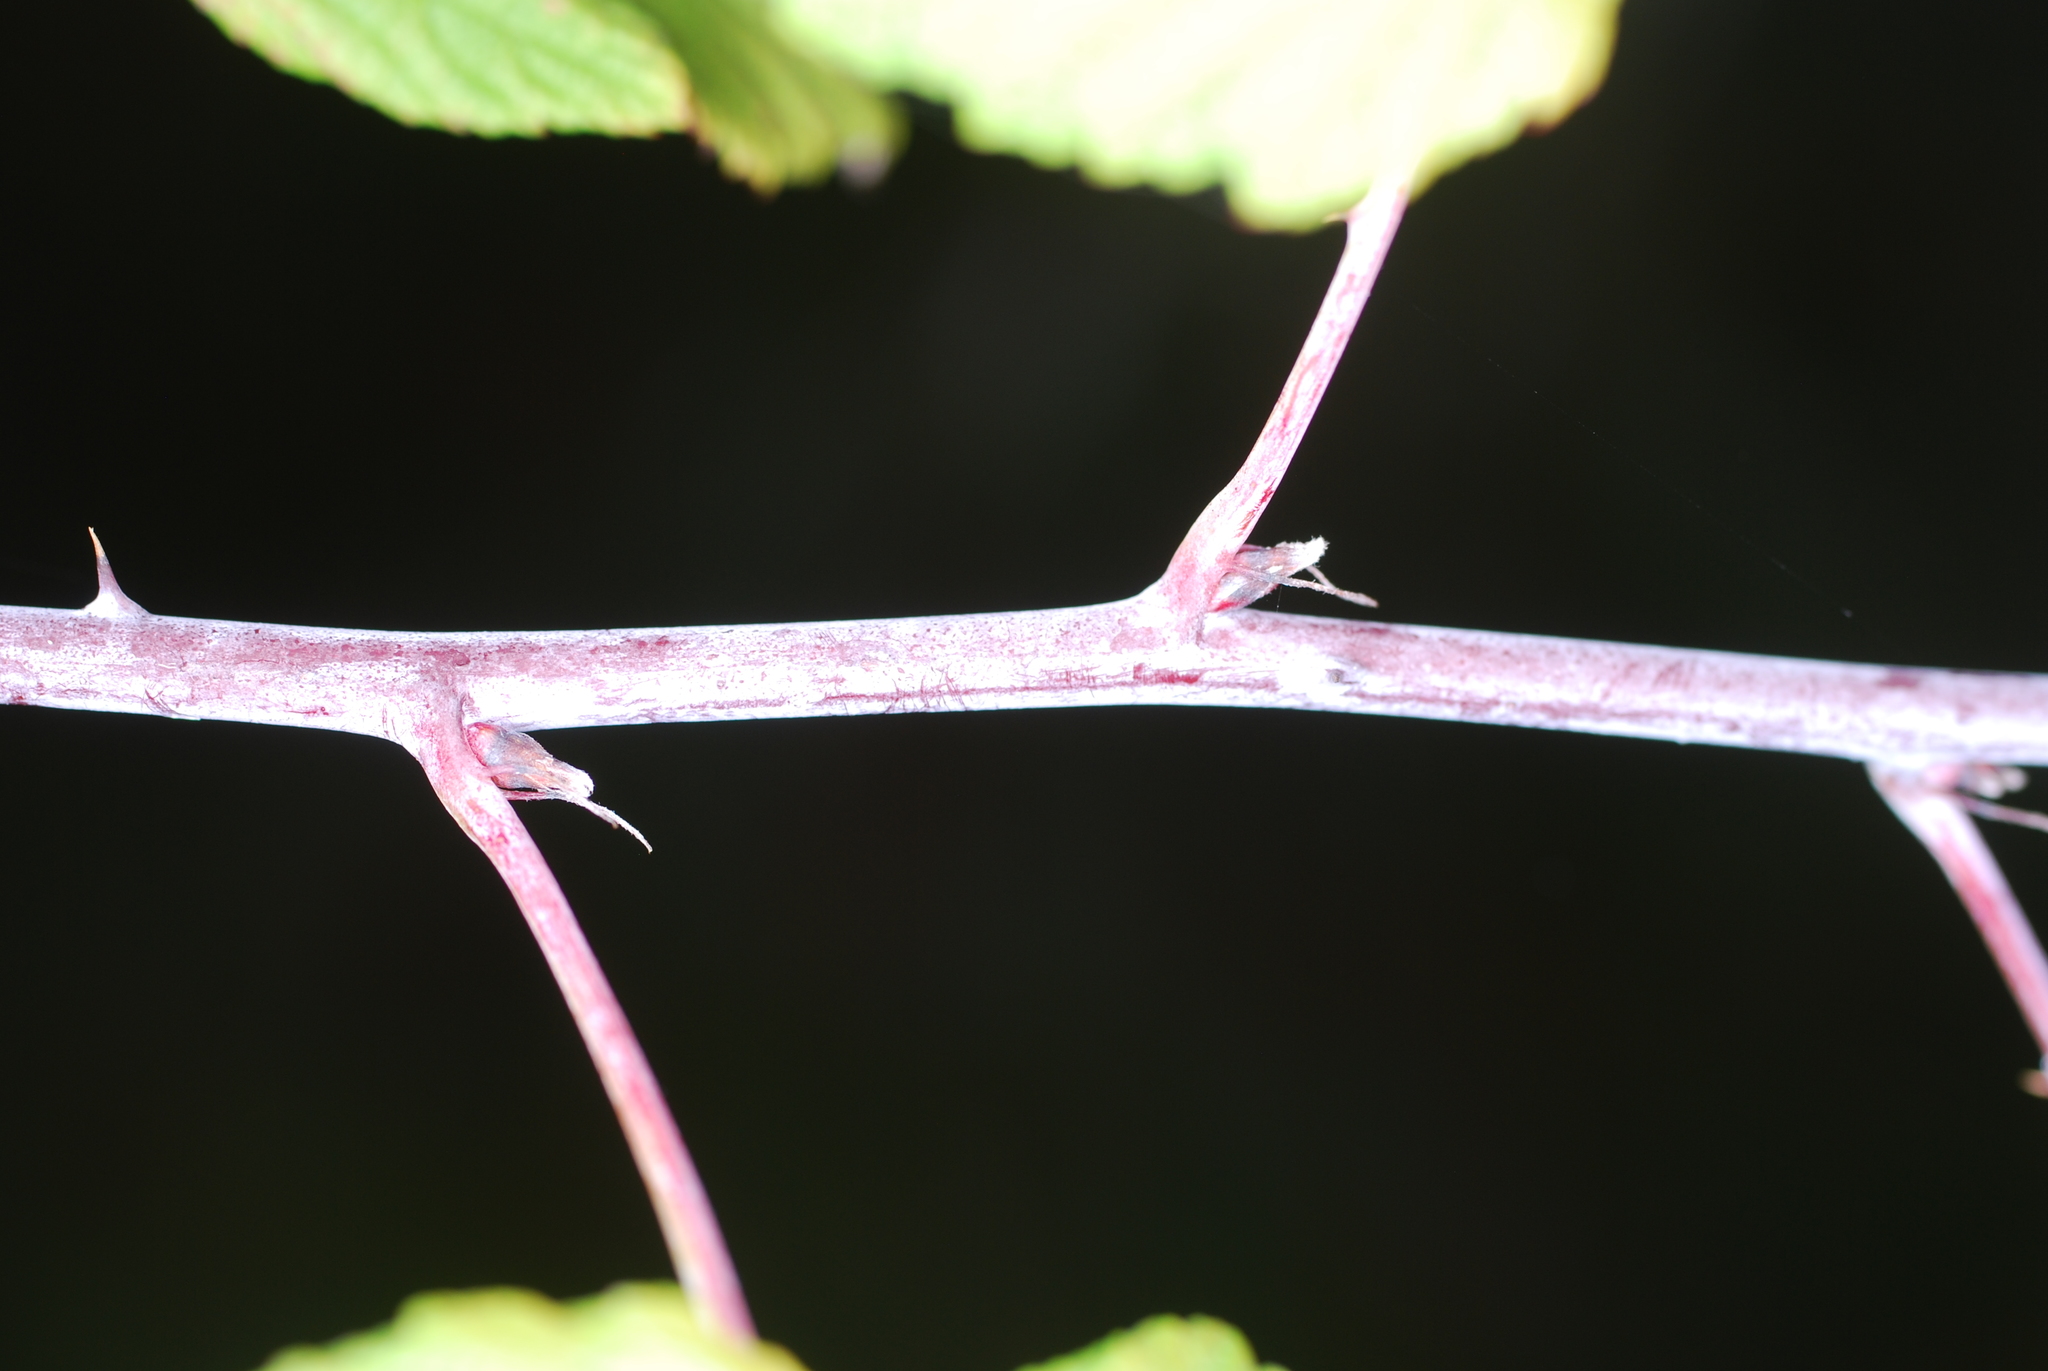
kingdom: Plantae
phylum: Tracheophyta
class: Magnoliopsida
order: Rosales
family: Rosaceae
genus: Rubus
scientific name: Rubus occidentalis
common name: Black raspberry
